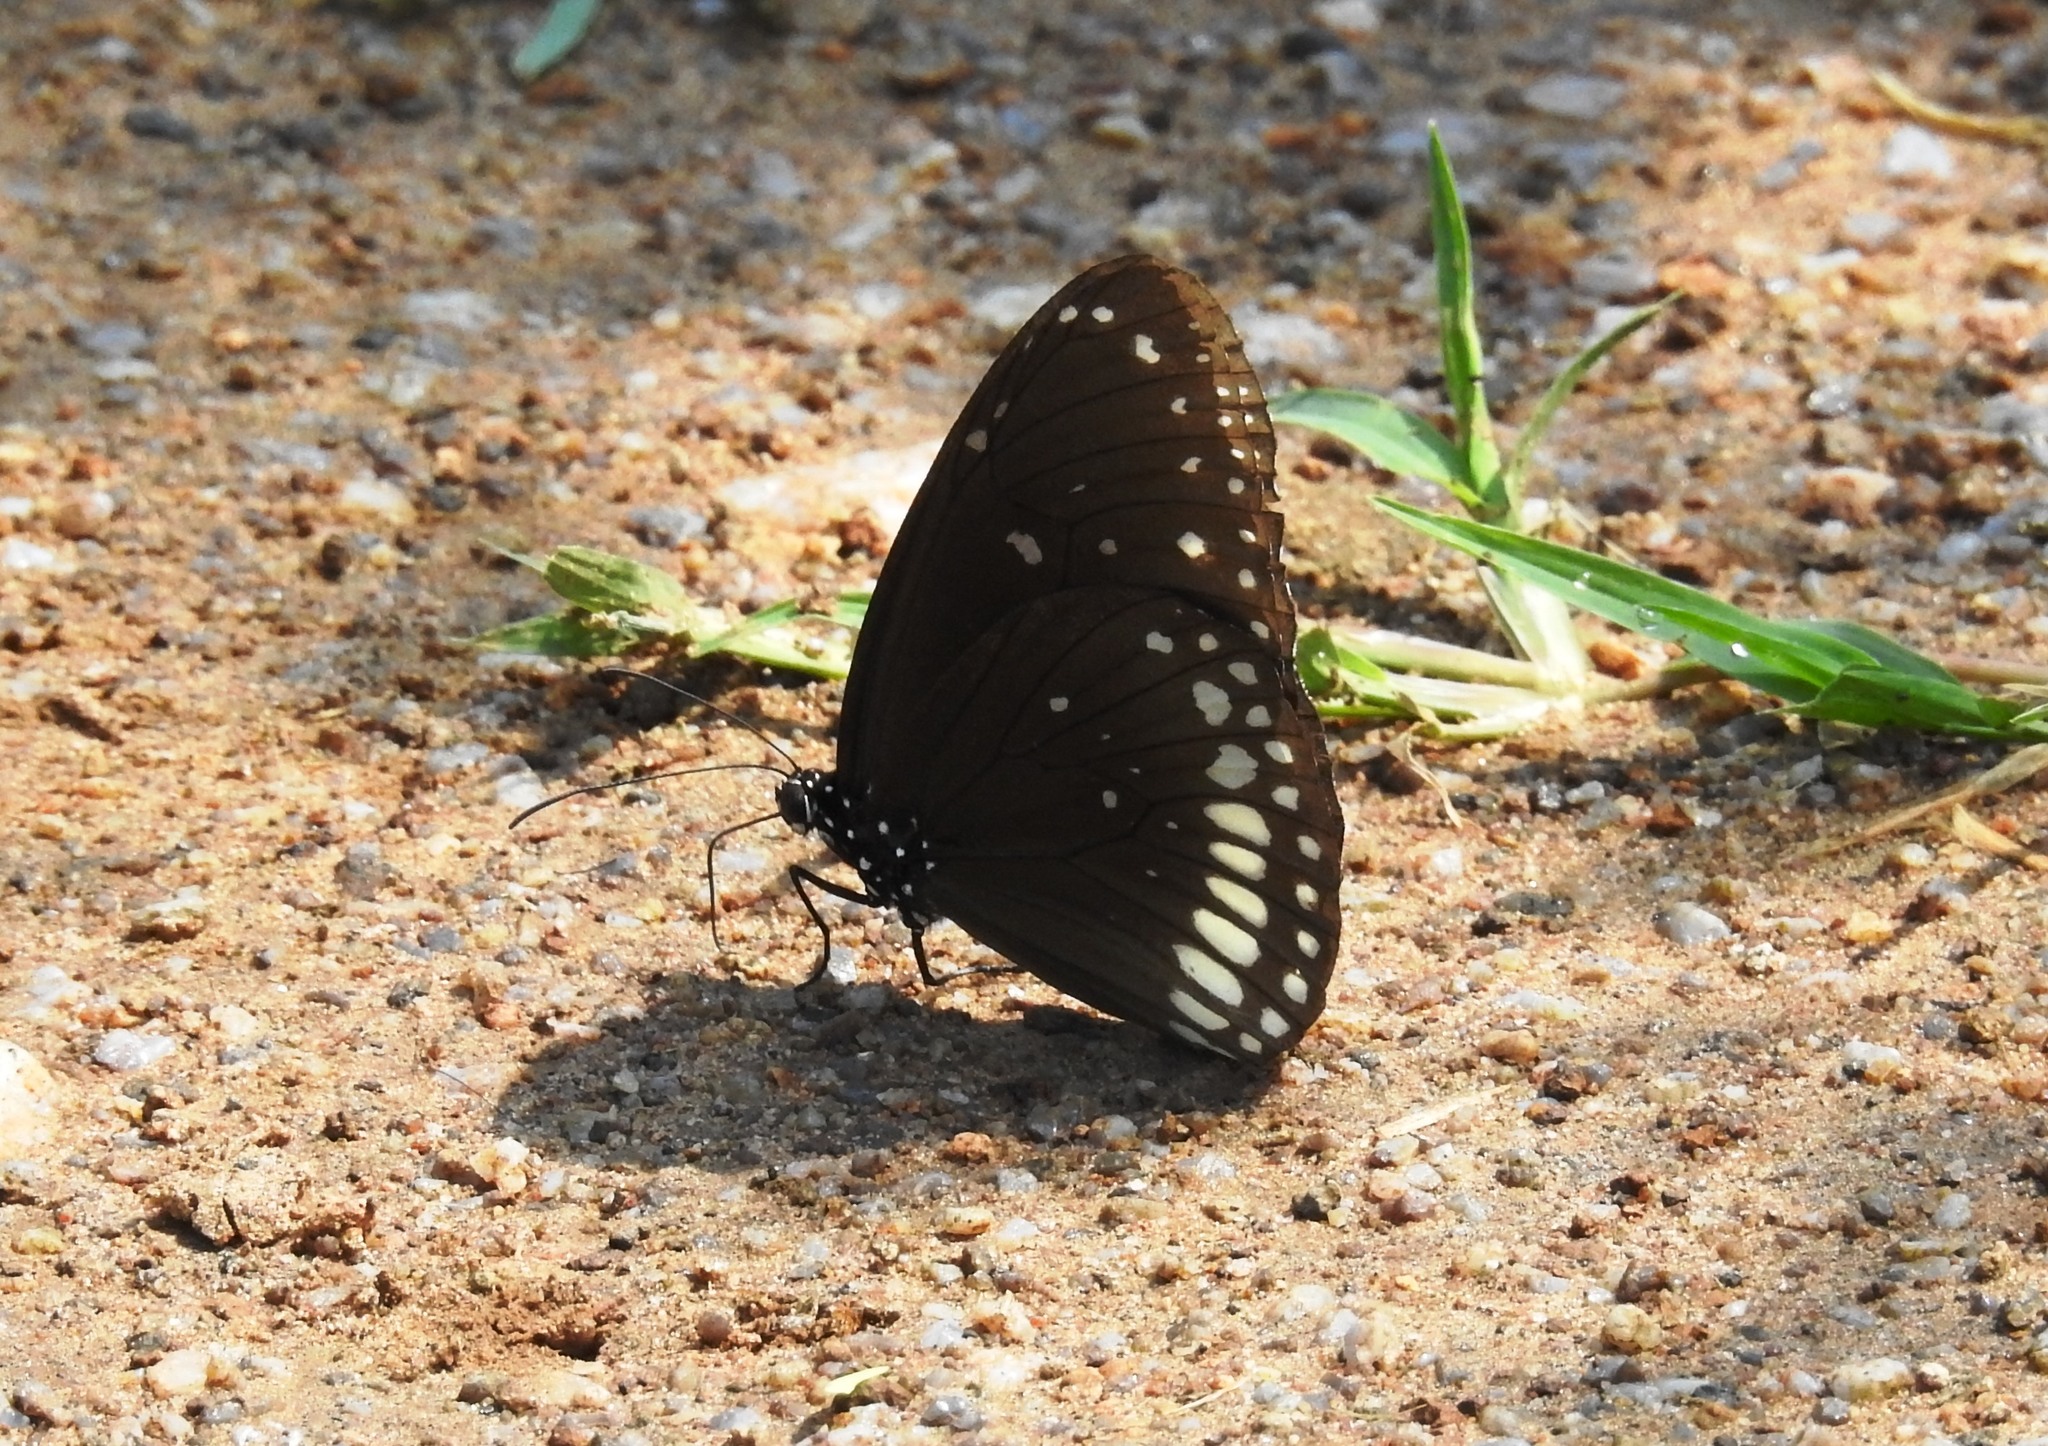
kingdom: Animalia
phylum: Arthropoda
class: Insecta
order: Lepidoptera
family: Nymphalidae
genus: Euploea
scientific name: Euploea core
